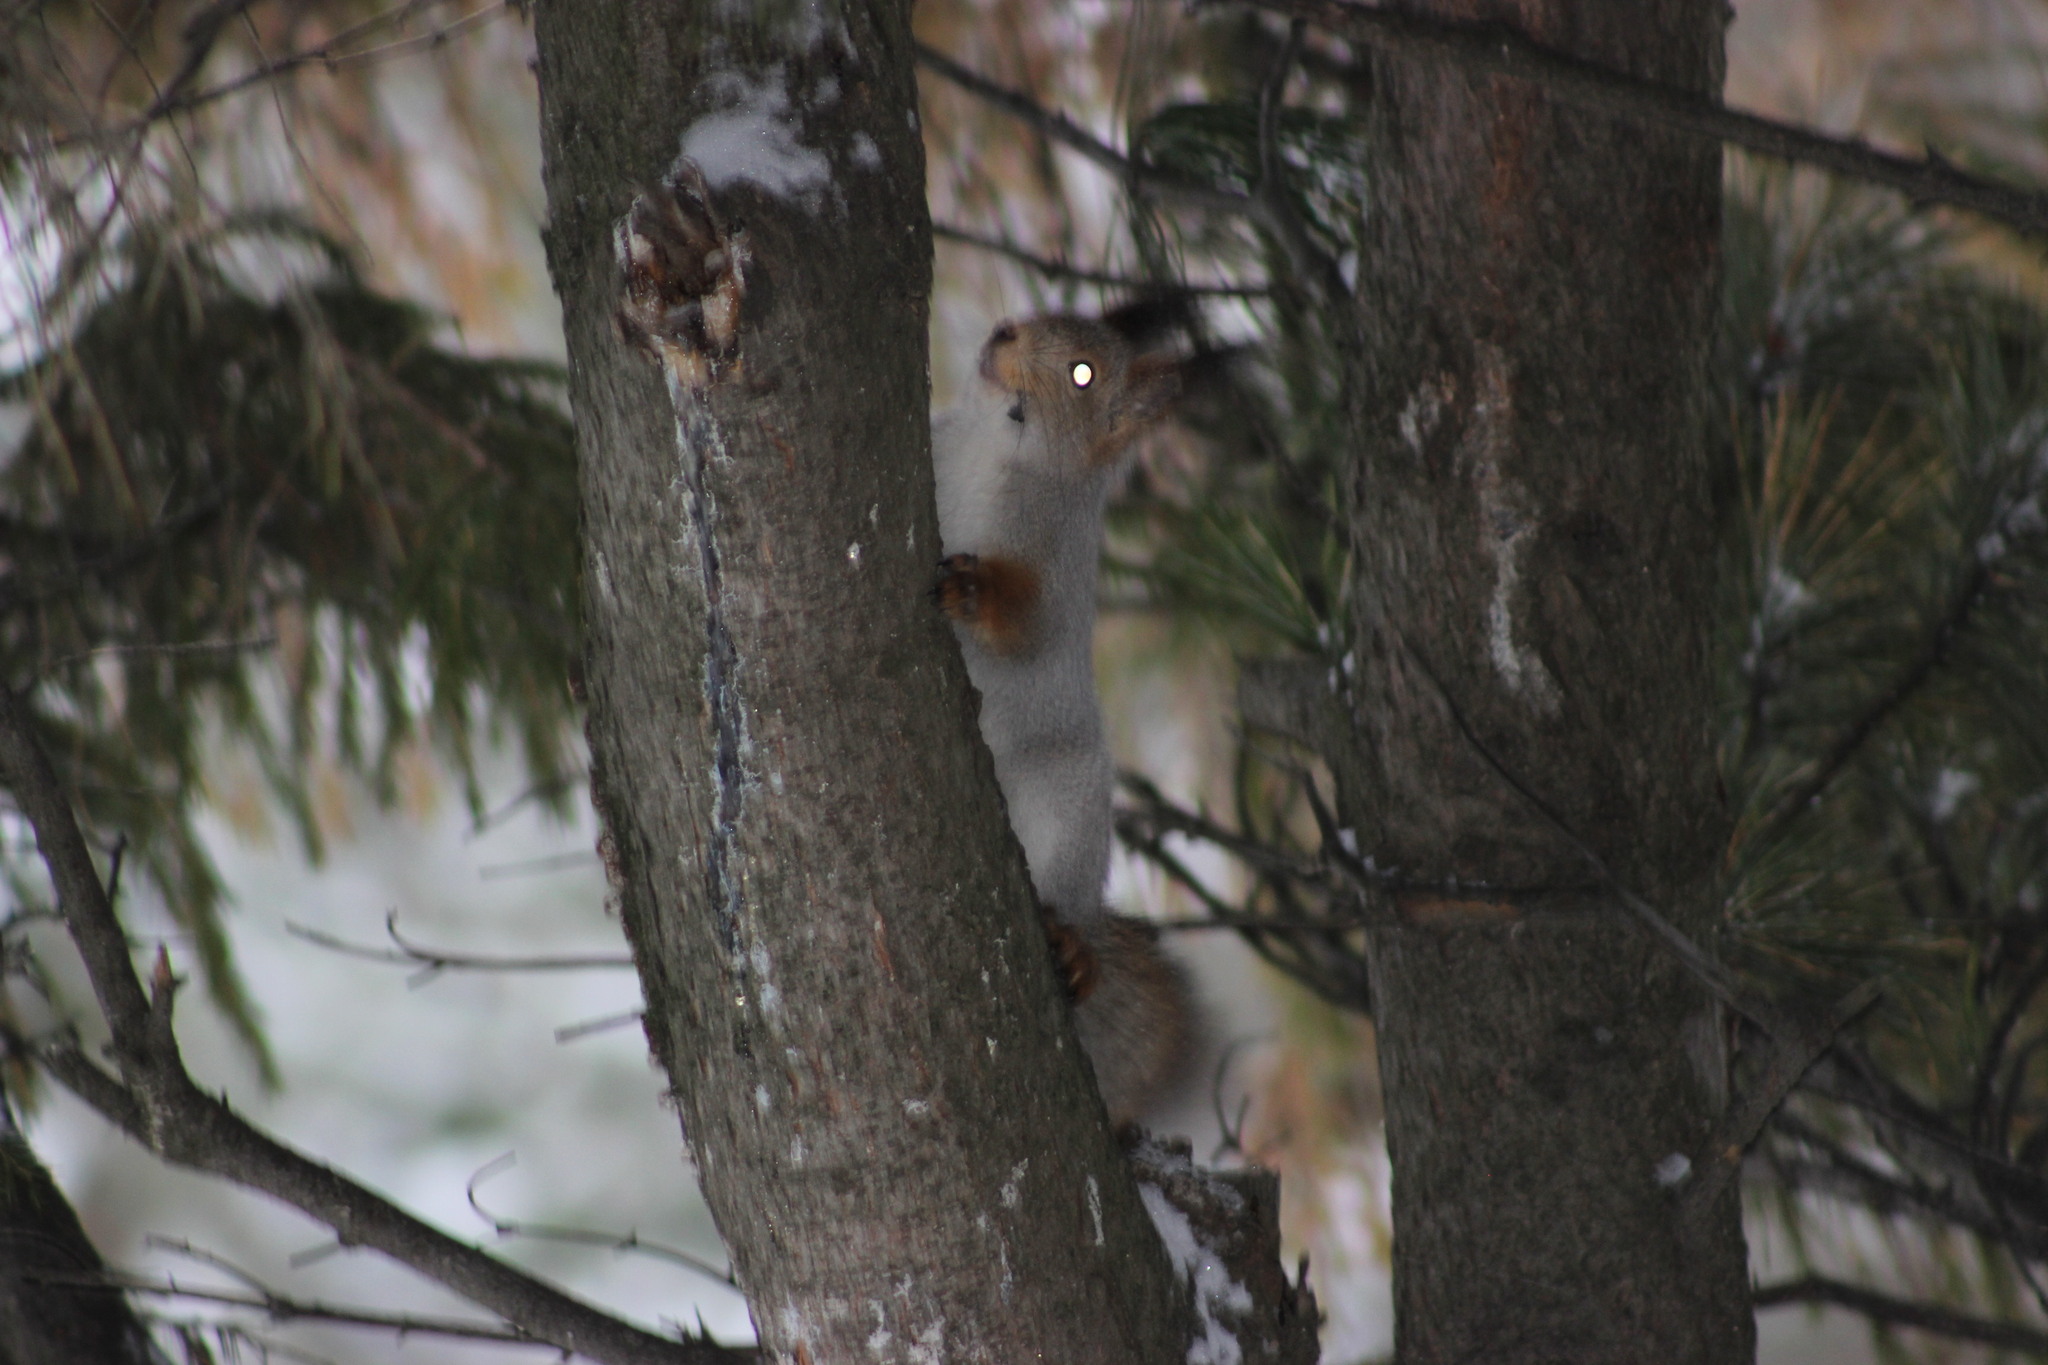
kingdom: Animalia
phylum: Chordata
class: Mammalia
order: Rodentia
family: Sciuridae
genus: Sciurus
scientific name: Sciurus vulgaris
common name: Eurasian red squirrel
